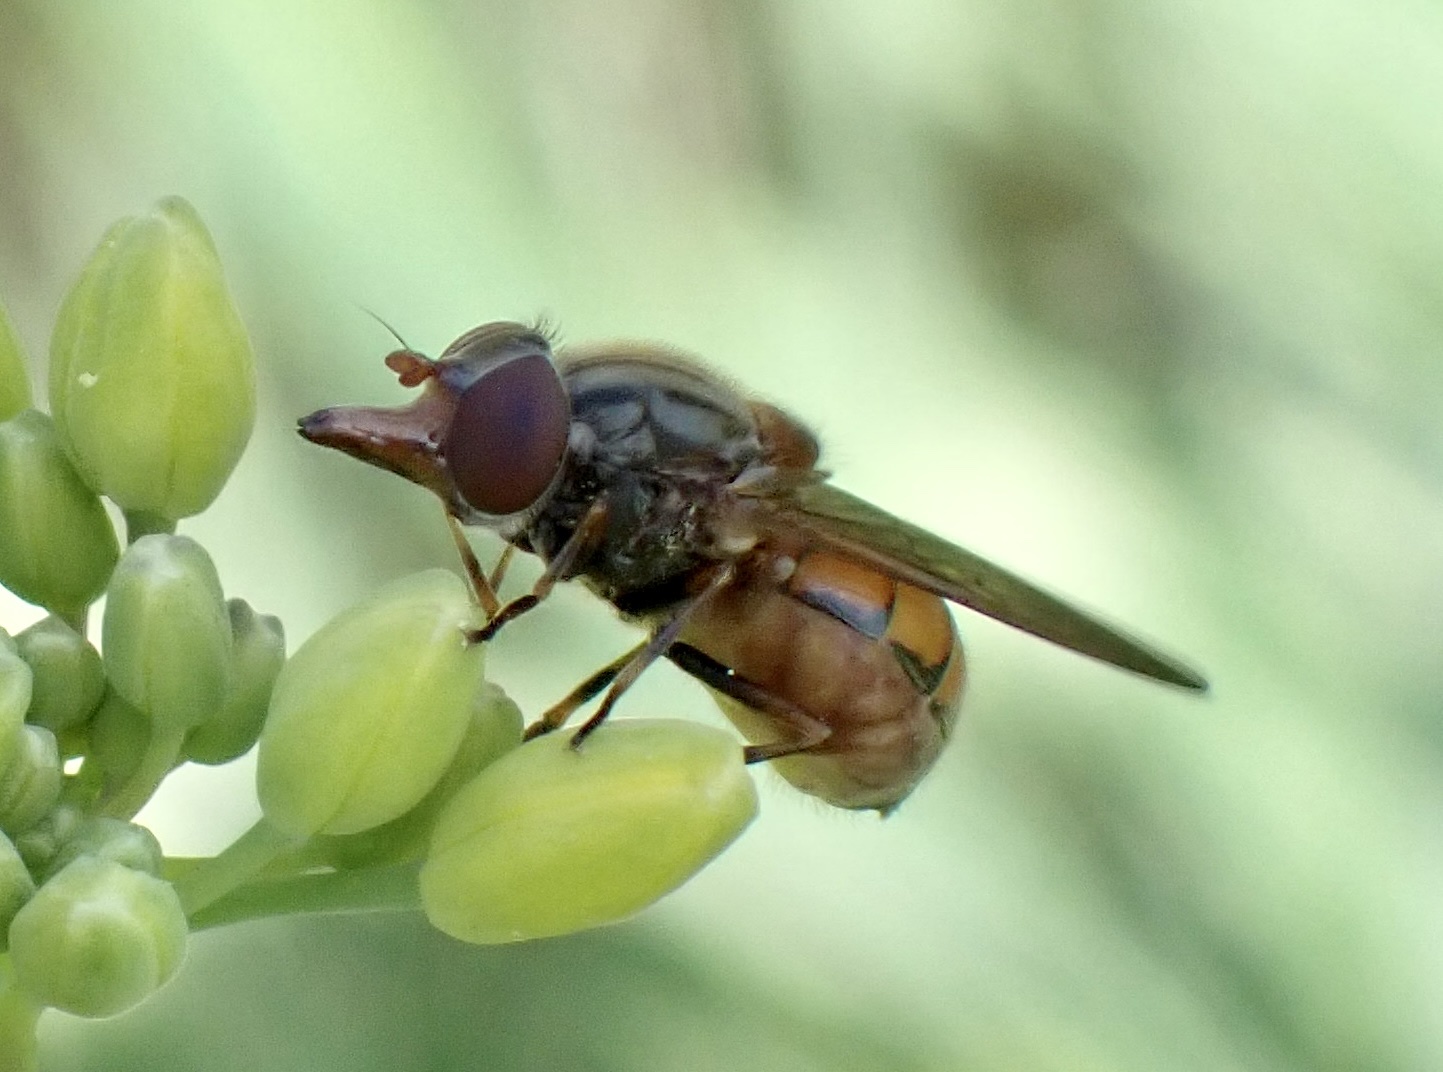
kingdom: Animalia
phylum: Arthropoda
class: Insecta
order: Diptera
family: Syrphidae
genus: Rhingia
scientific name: Rhingia campestris
